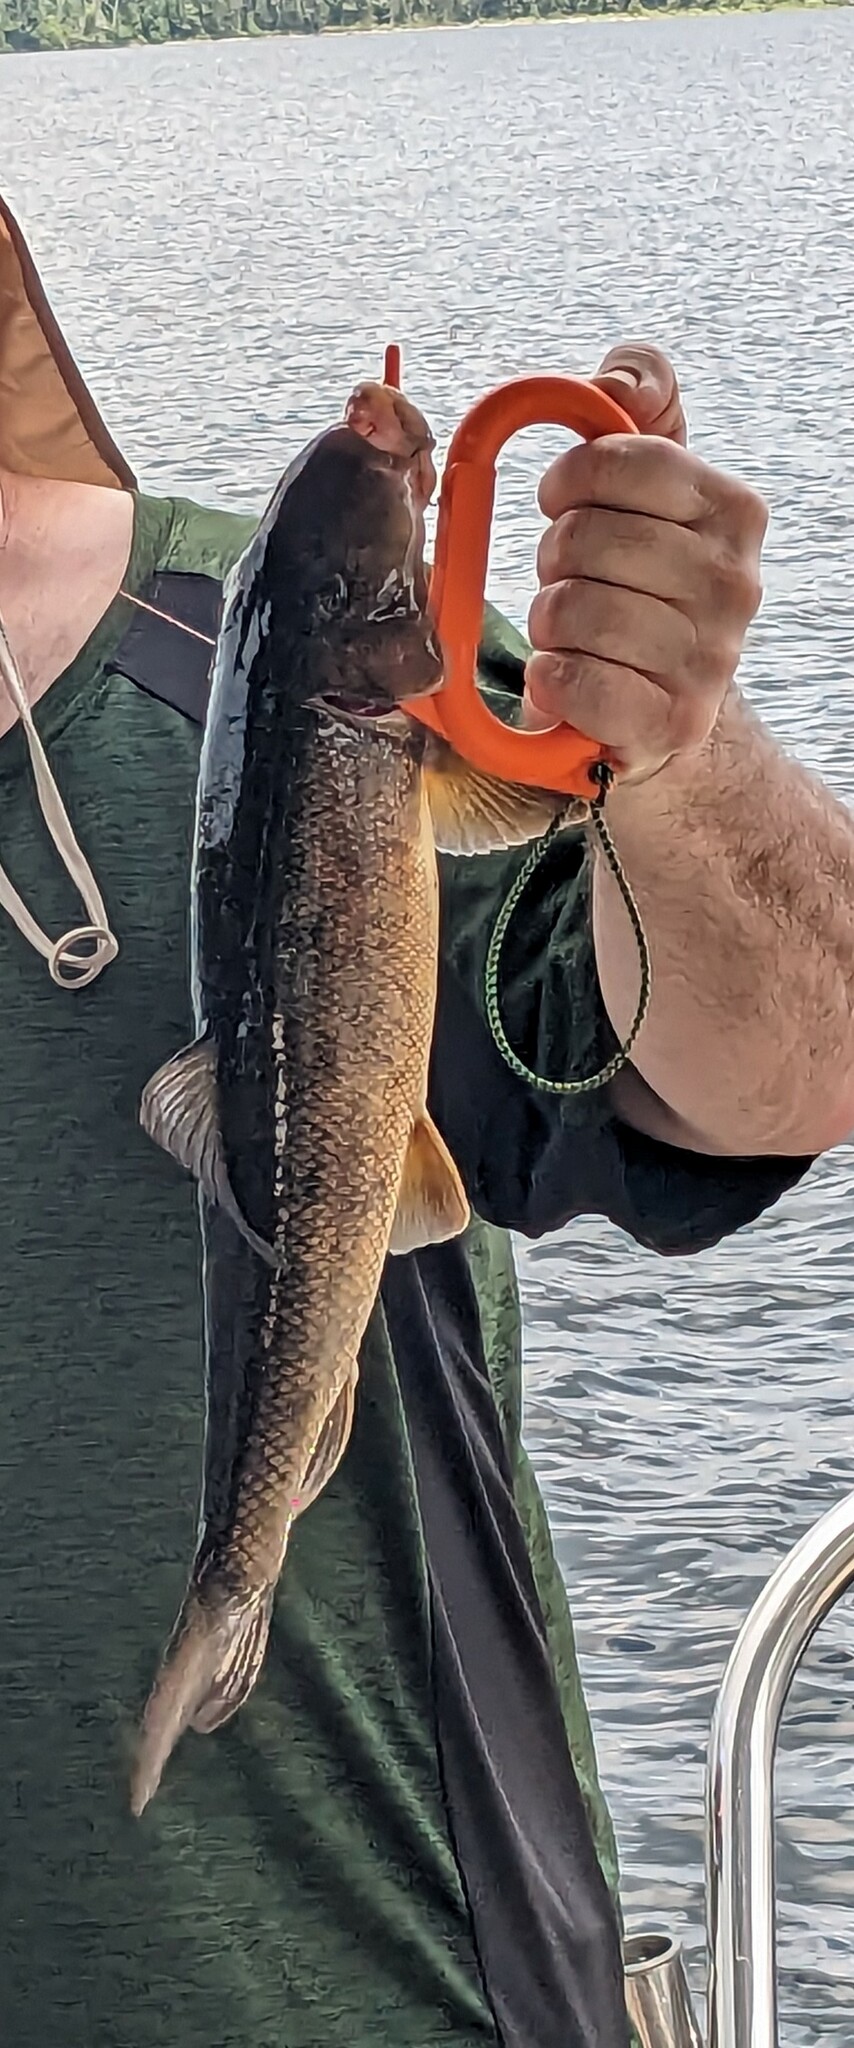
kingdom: Animalia
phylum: Chordata
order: Cypriniformes
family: Catostomidae
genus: Catostomus
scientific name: Catostomus commersonii
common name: White sucker
